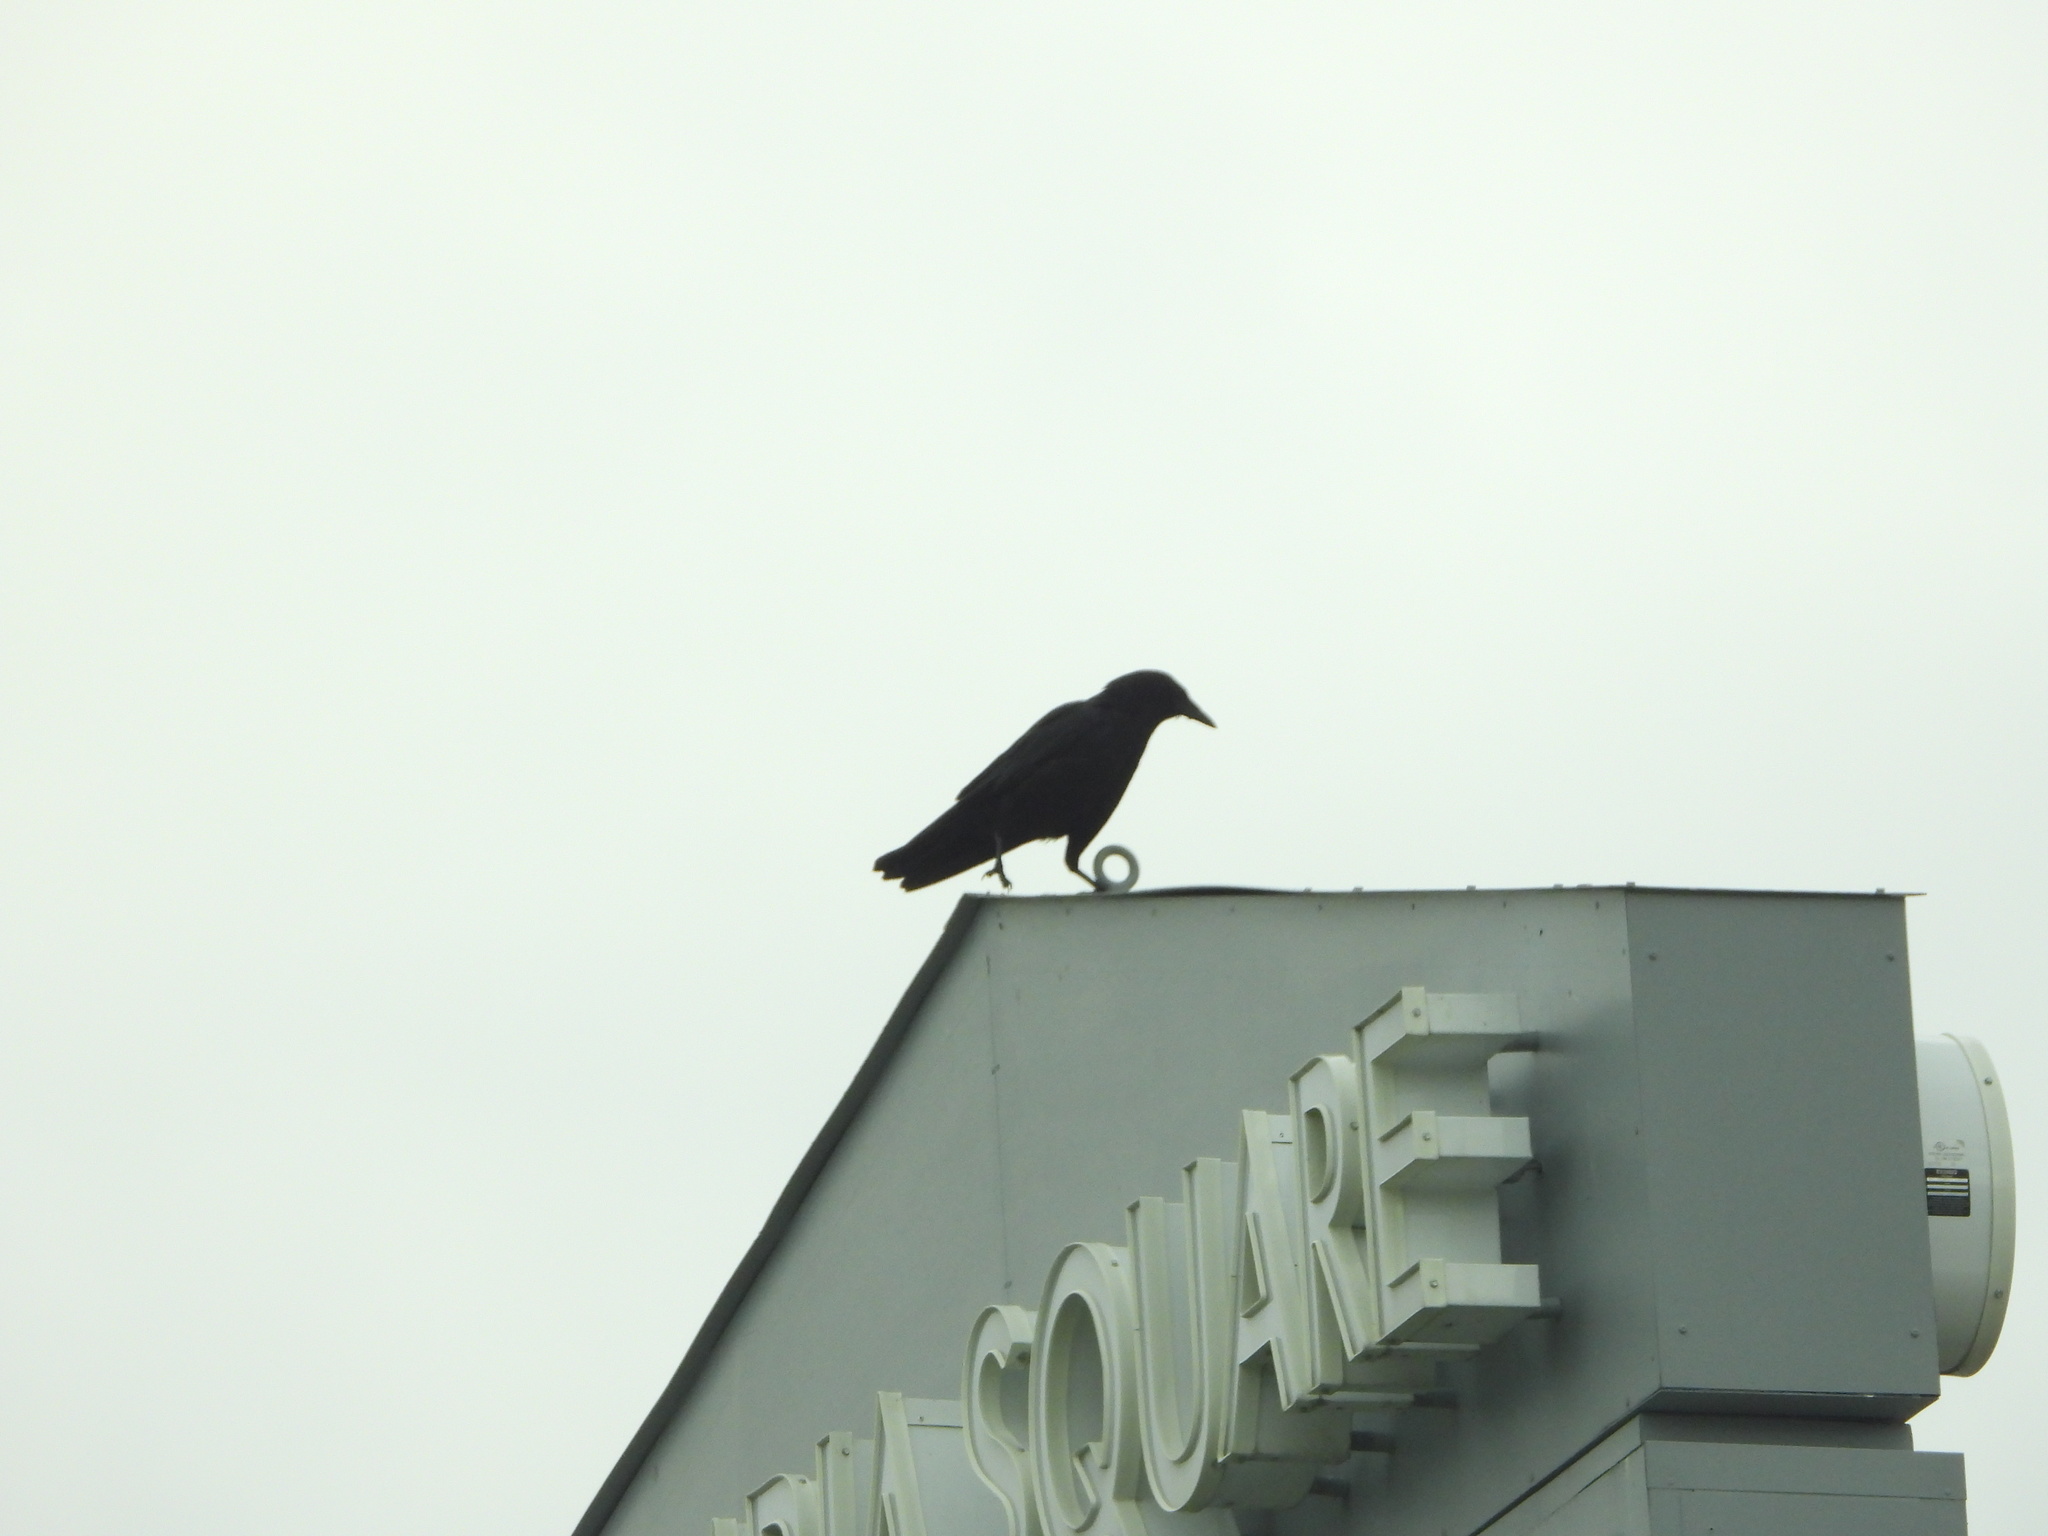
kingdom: Animalia
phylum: Chordata
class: Aves
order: Passeriformes
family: Corvidae
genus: Corvus
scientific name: Corvus brachyrhynchos
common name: American crow
